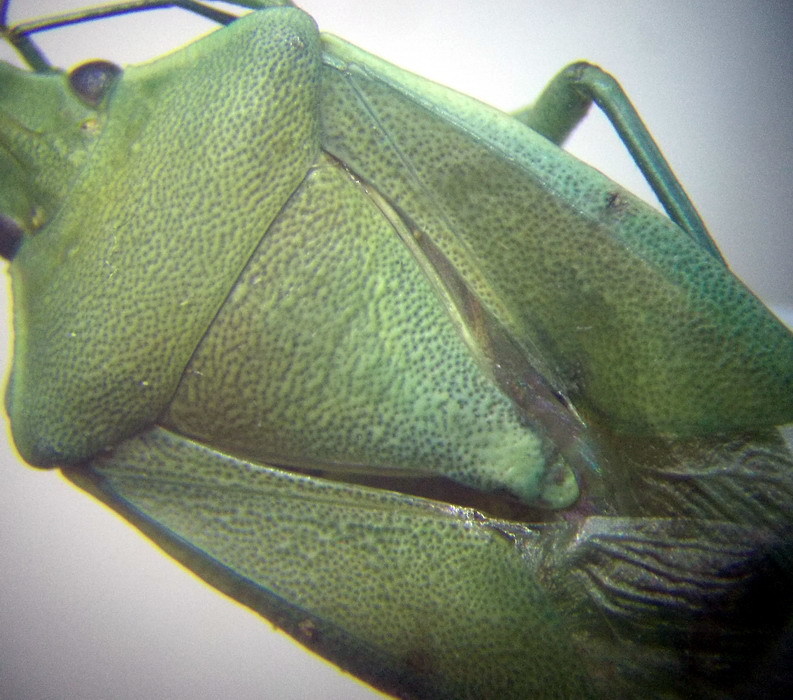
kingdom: Animalia
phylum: Arthropoda
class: Insecta
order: Hemiptera
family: Pentatomidae
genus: Brachynema
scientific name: Brachynema germarii
